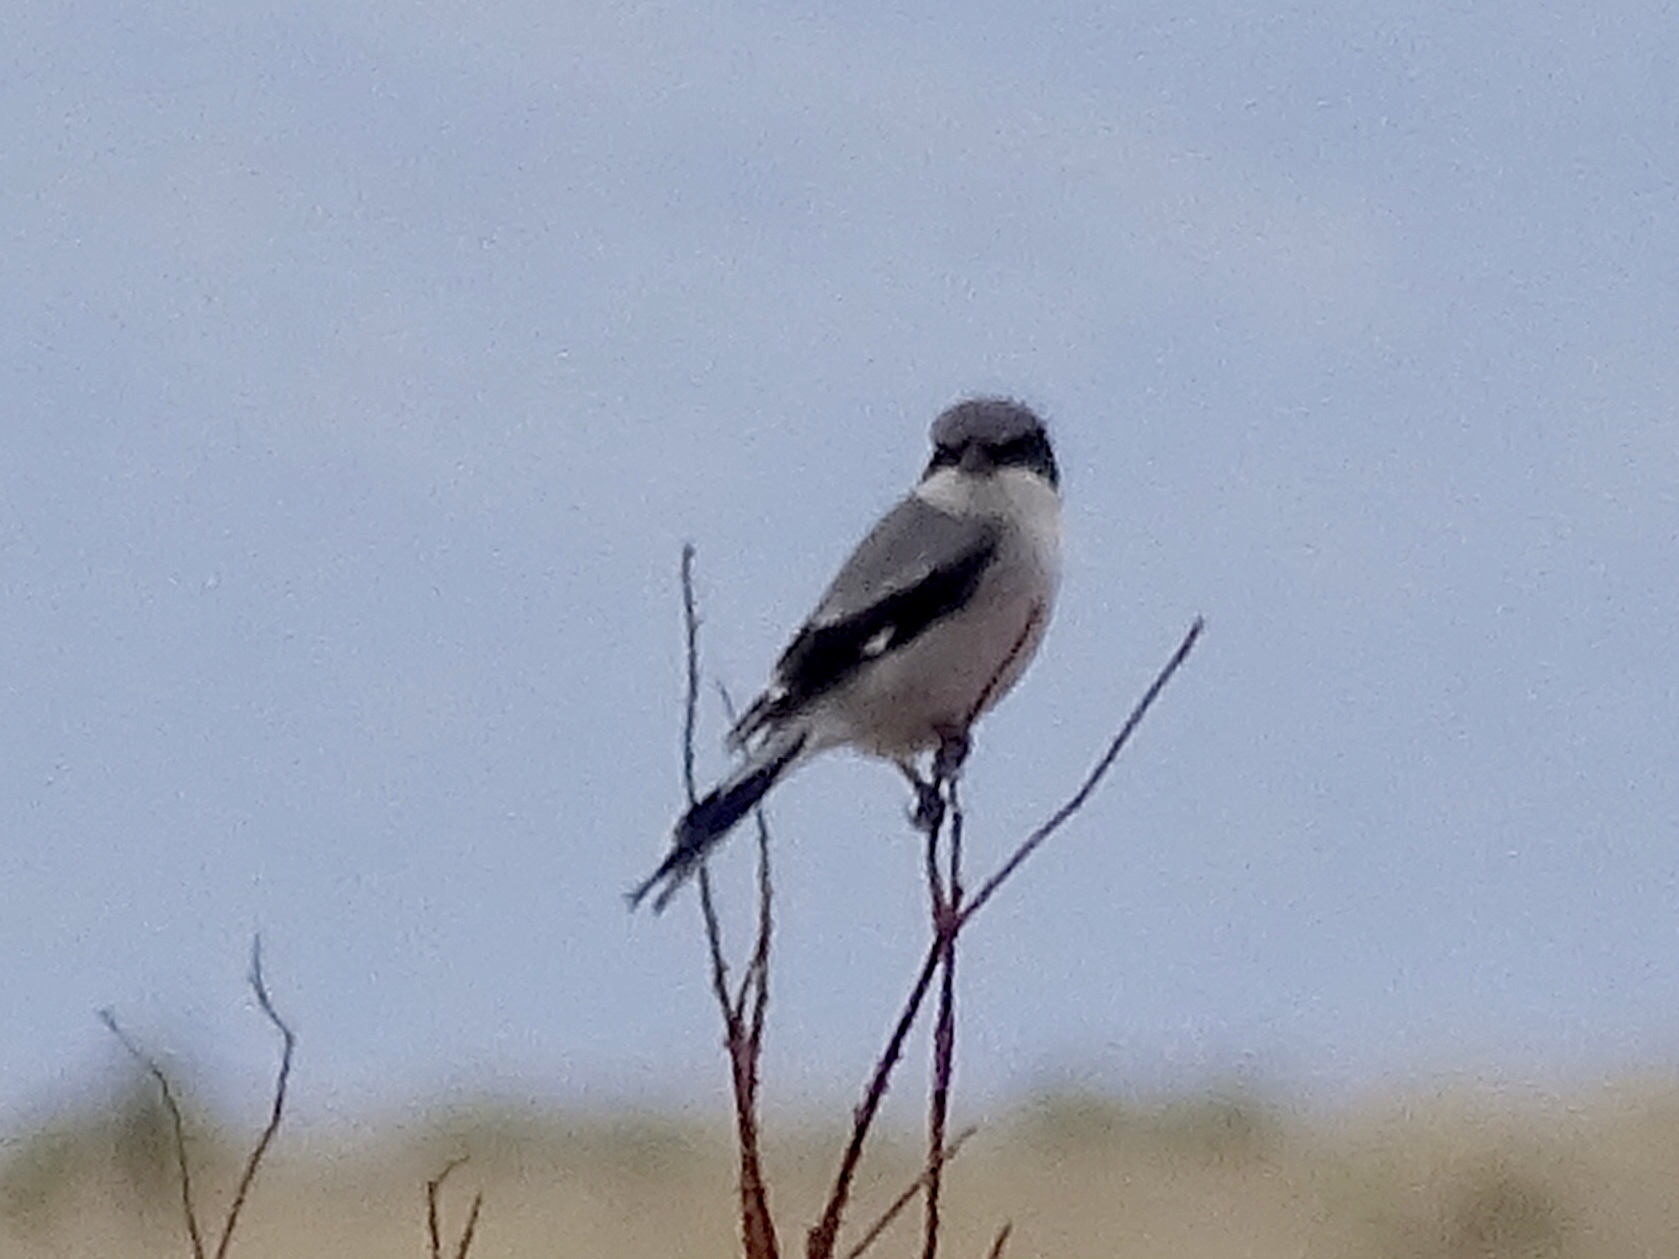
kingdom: Animalia
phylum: Chordata
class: Aves
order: Passeriformes
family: Laniidae
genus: Lanius
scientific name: Lanius ludovicianus
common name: Loggerhead shrike
